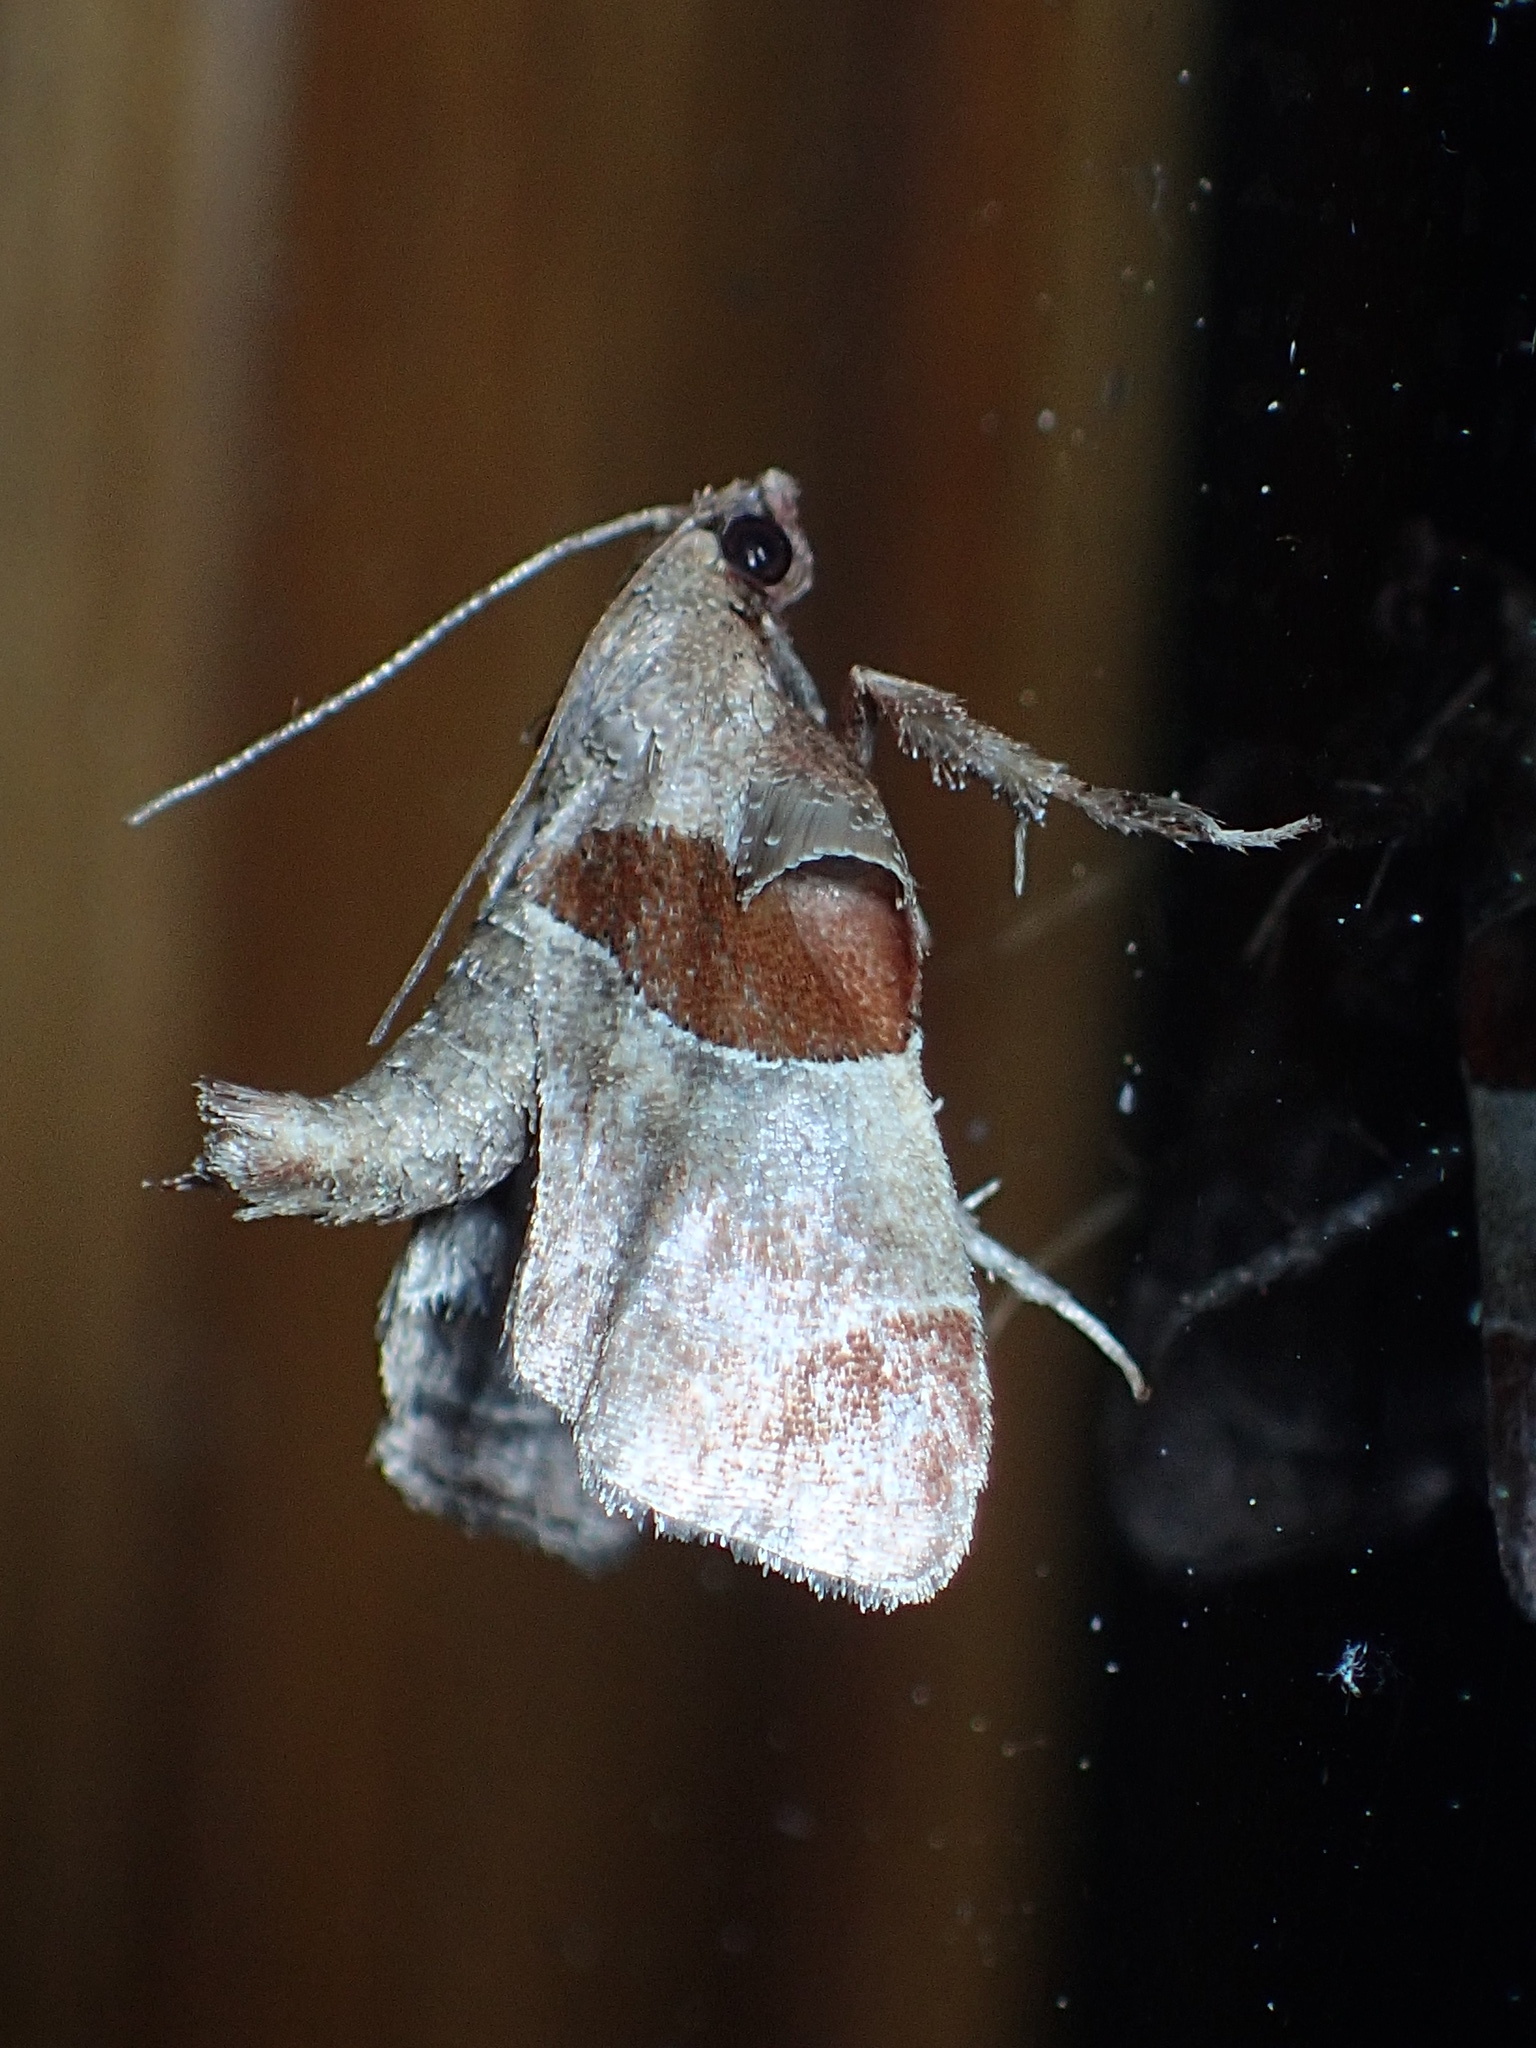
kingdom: Animalia
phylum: Arthropoda
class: Insecta
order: Lepidoptera
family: Pyralidae
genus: Tosale
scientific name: Tosale oviplagalis
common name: Dimorphic tosale moth
